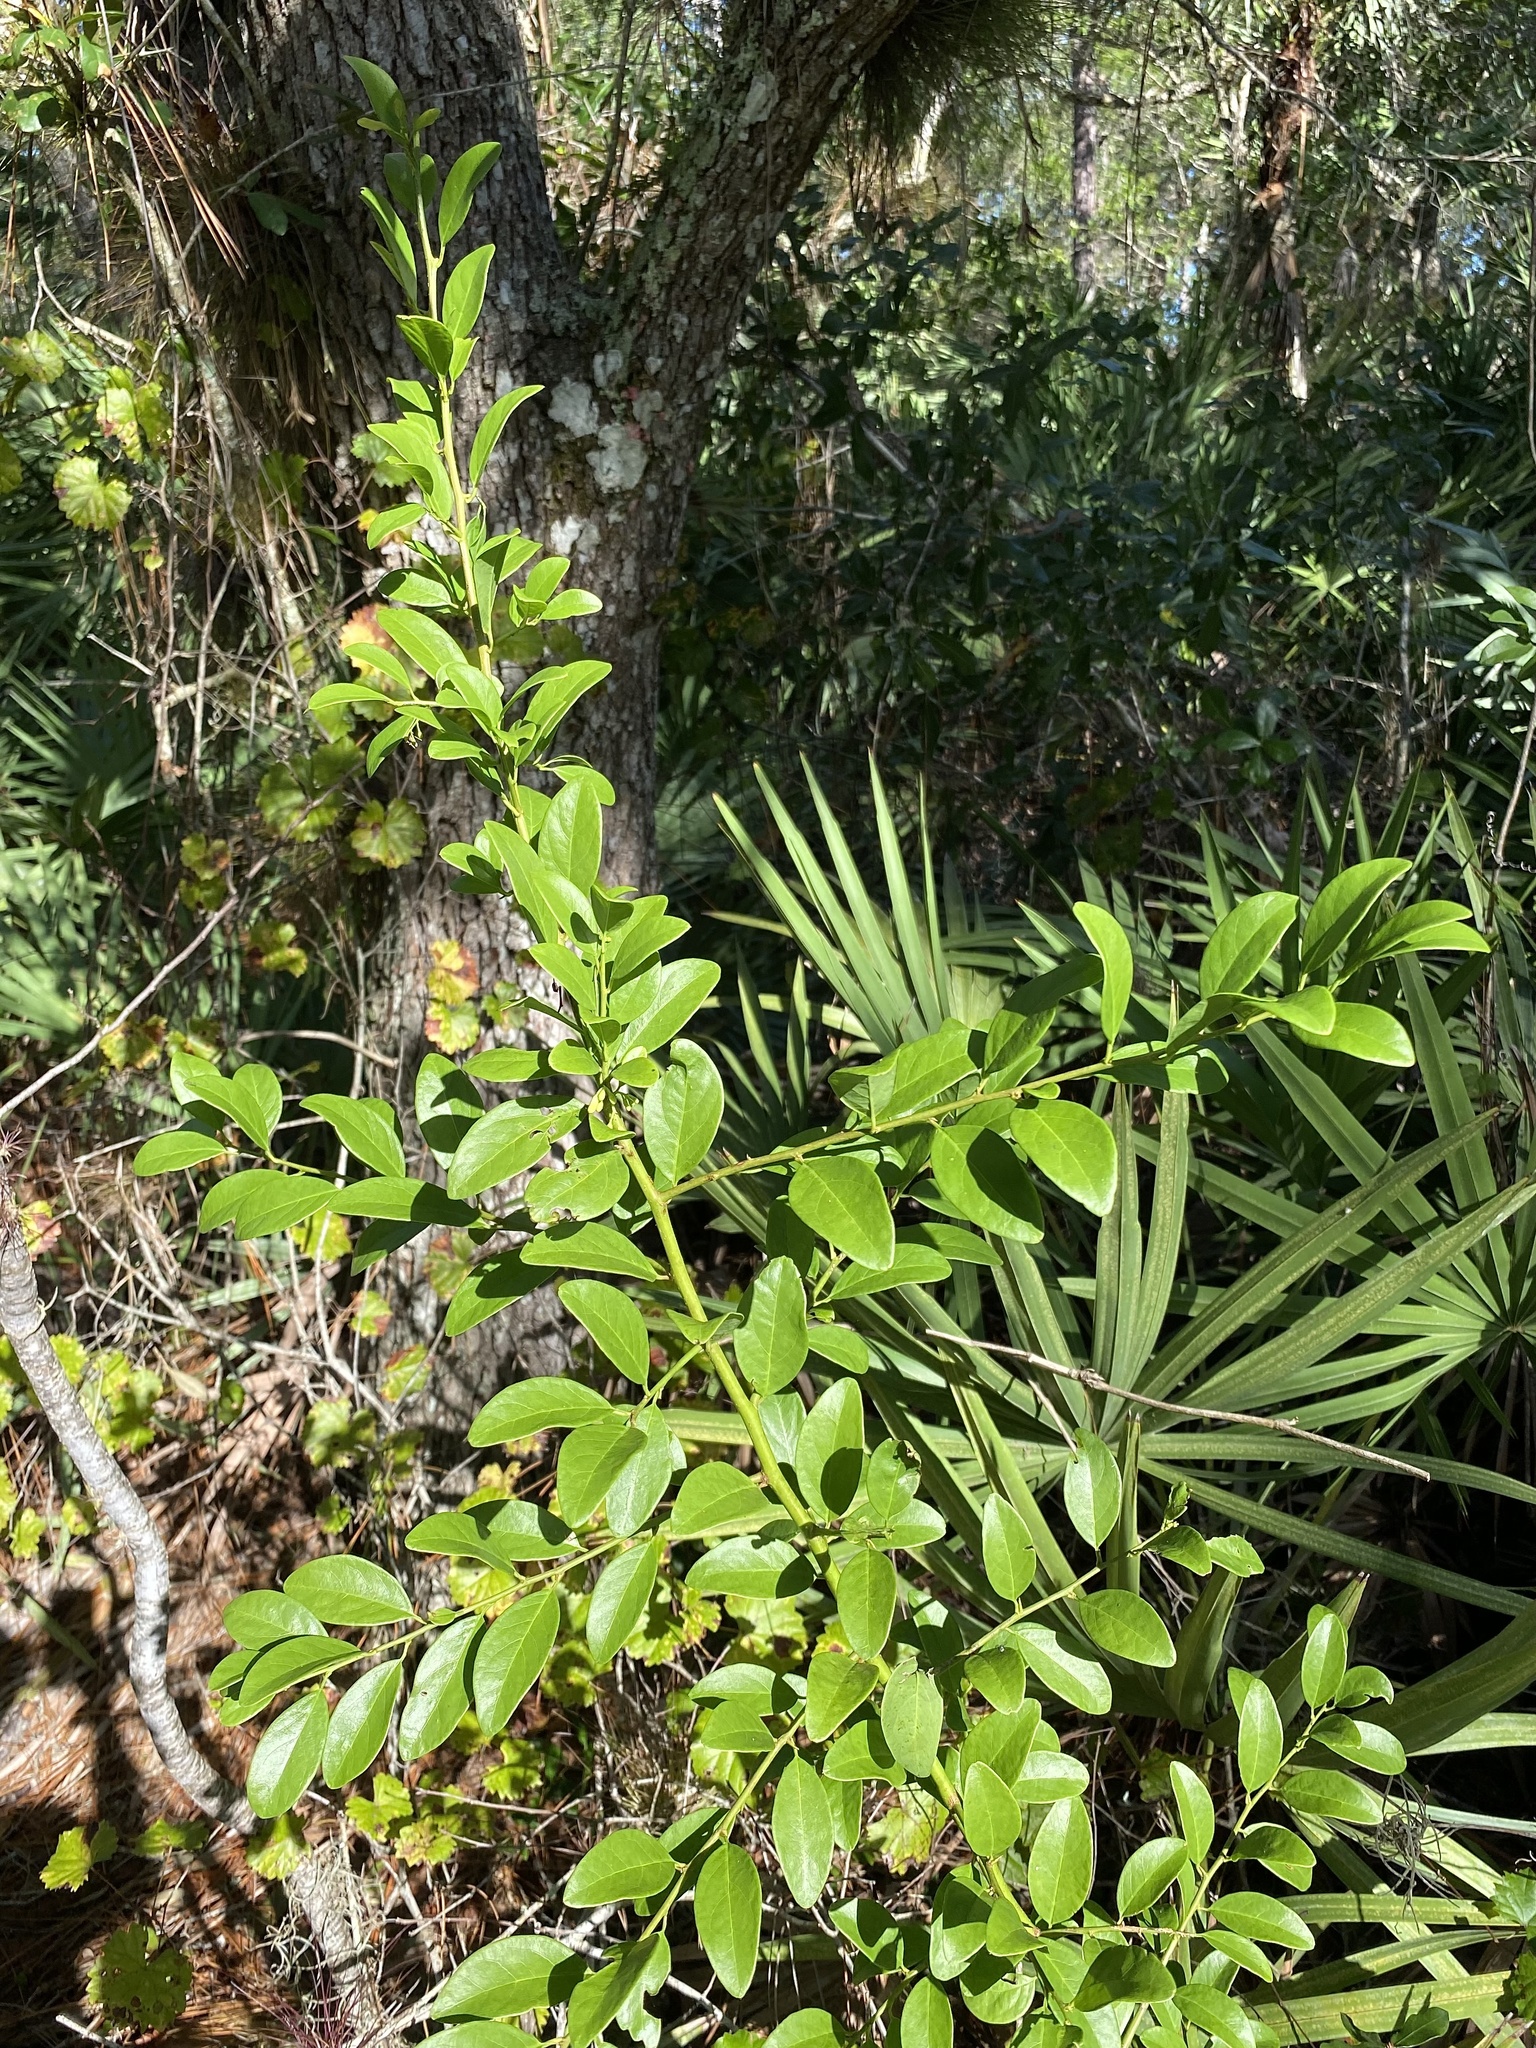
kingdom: Plantae
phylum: Tracheophyta
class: Magnoliopsida
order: Santalales
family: Ximeniaceae
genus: Ximenia
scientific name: Ximenia americana
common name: Tallowwood
